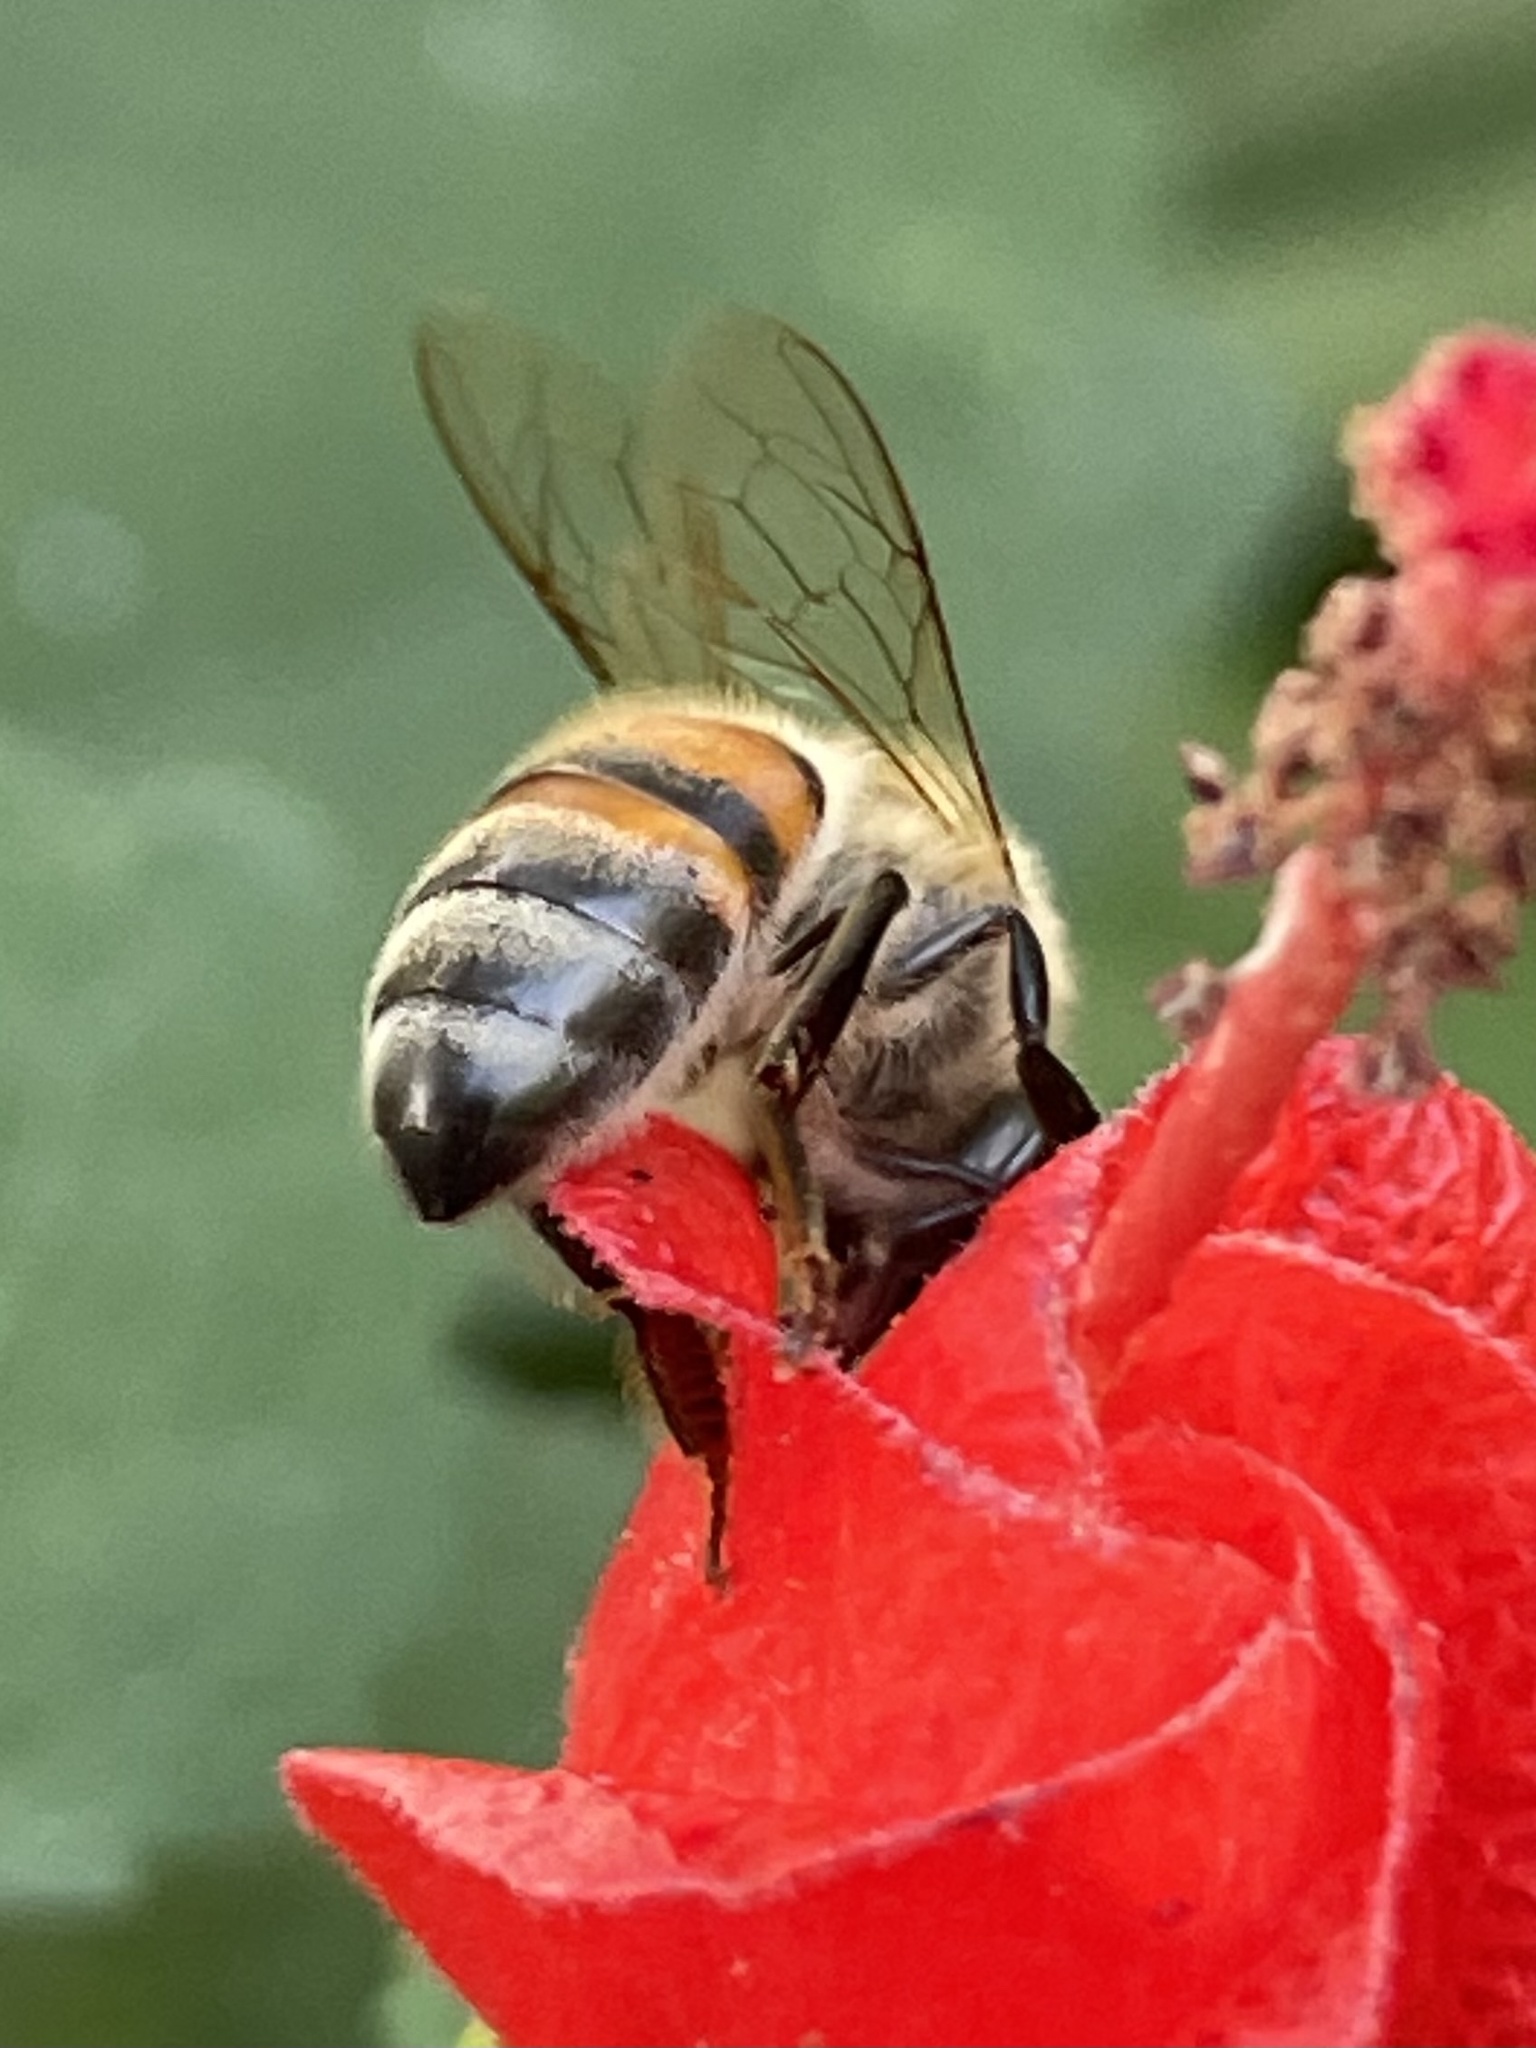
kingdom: Animalia
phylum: Arthropoda
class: Insecta
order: Hymenoptera
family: Apidae
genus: Apis
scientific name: Apis mellifera
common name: Honey bee
